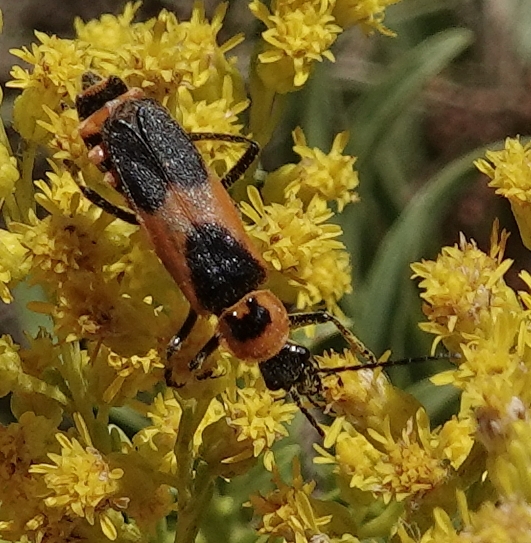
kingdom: Animalia
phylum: Arthropoda
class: Insecta
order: Coleoptera
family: Cantharidae
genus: Chauliognathus
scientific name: Chauliognathus basalis
